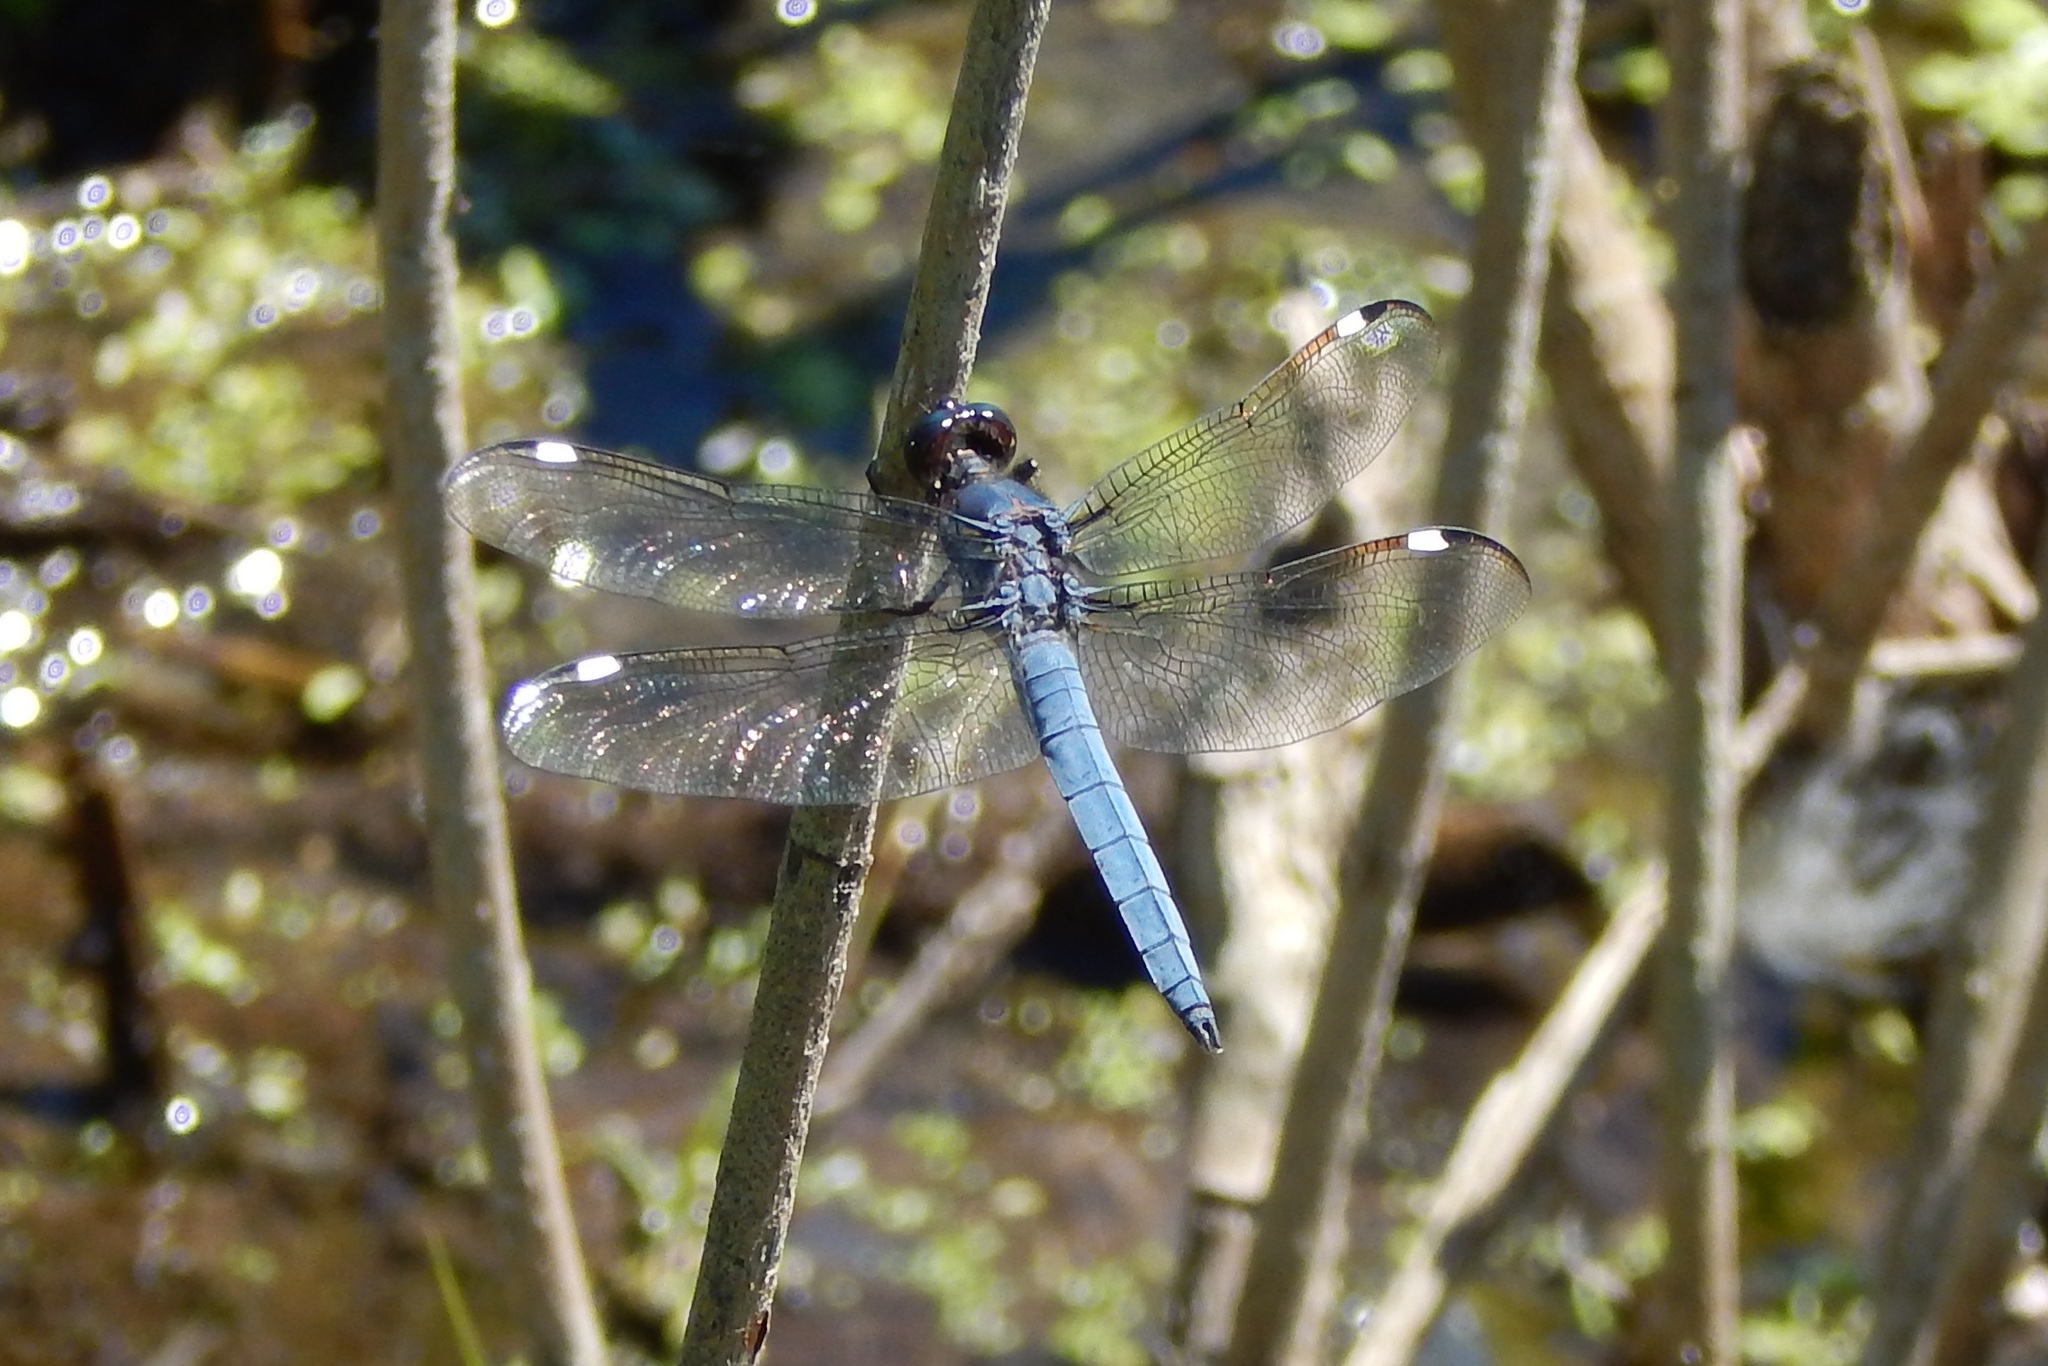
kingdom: Animalia
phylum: Arthropoda
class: Insecta
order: Odonata
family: Libellulidae
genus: Libellula
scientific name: Libellula cyanea
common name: Spangled skimmer
